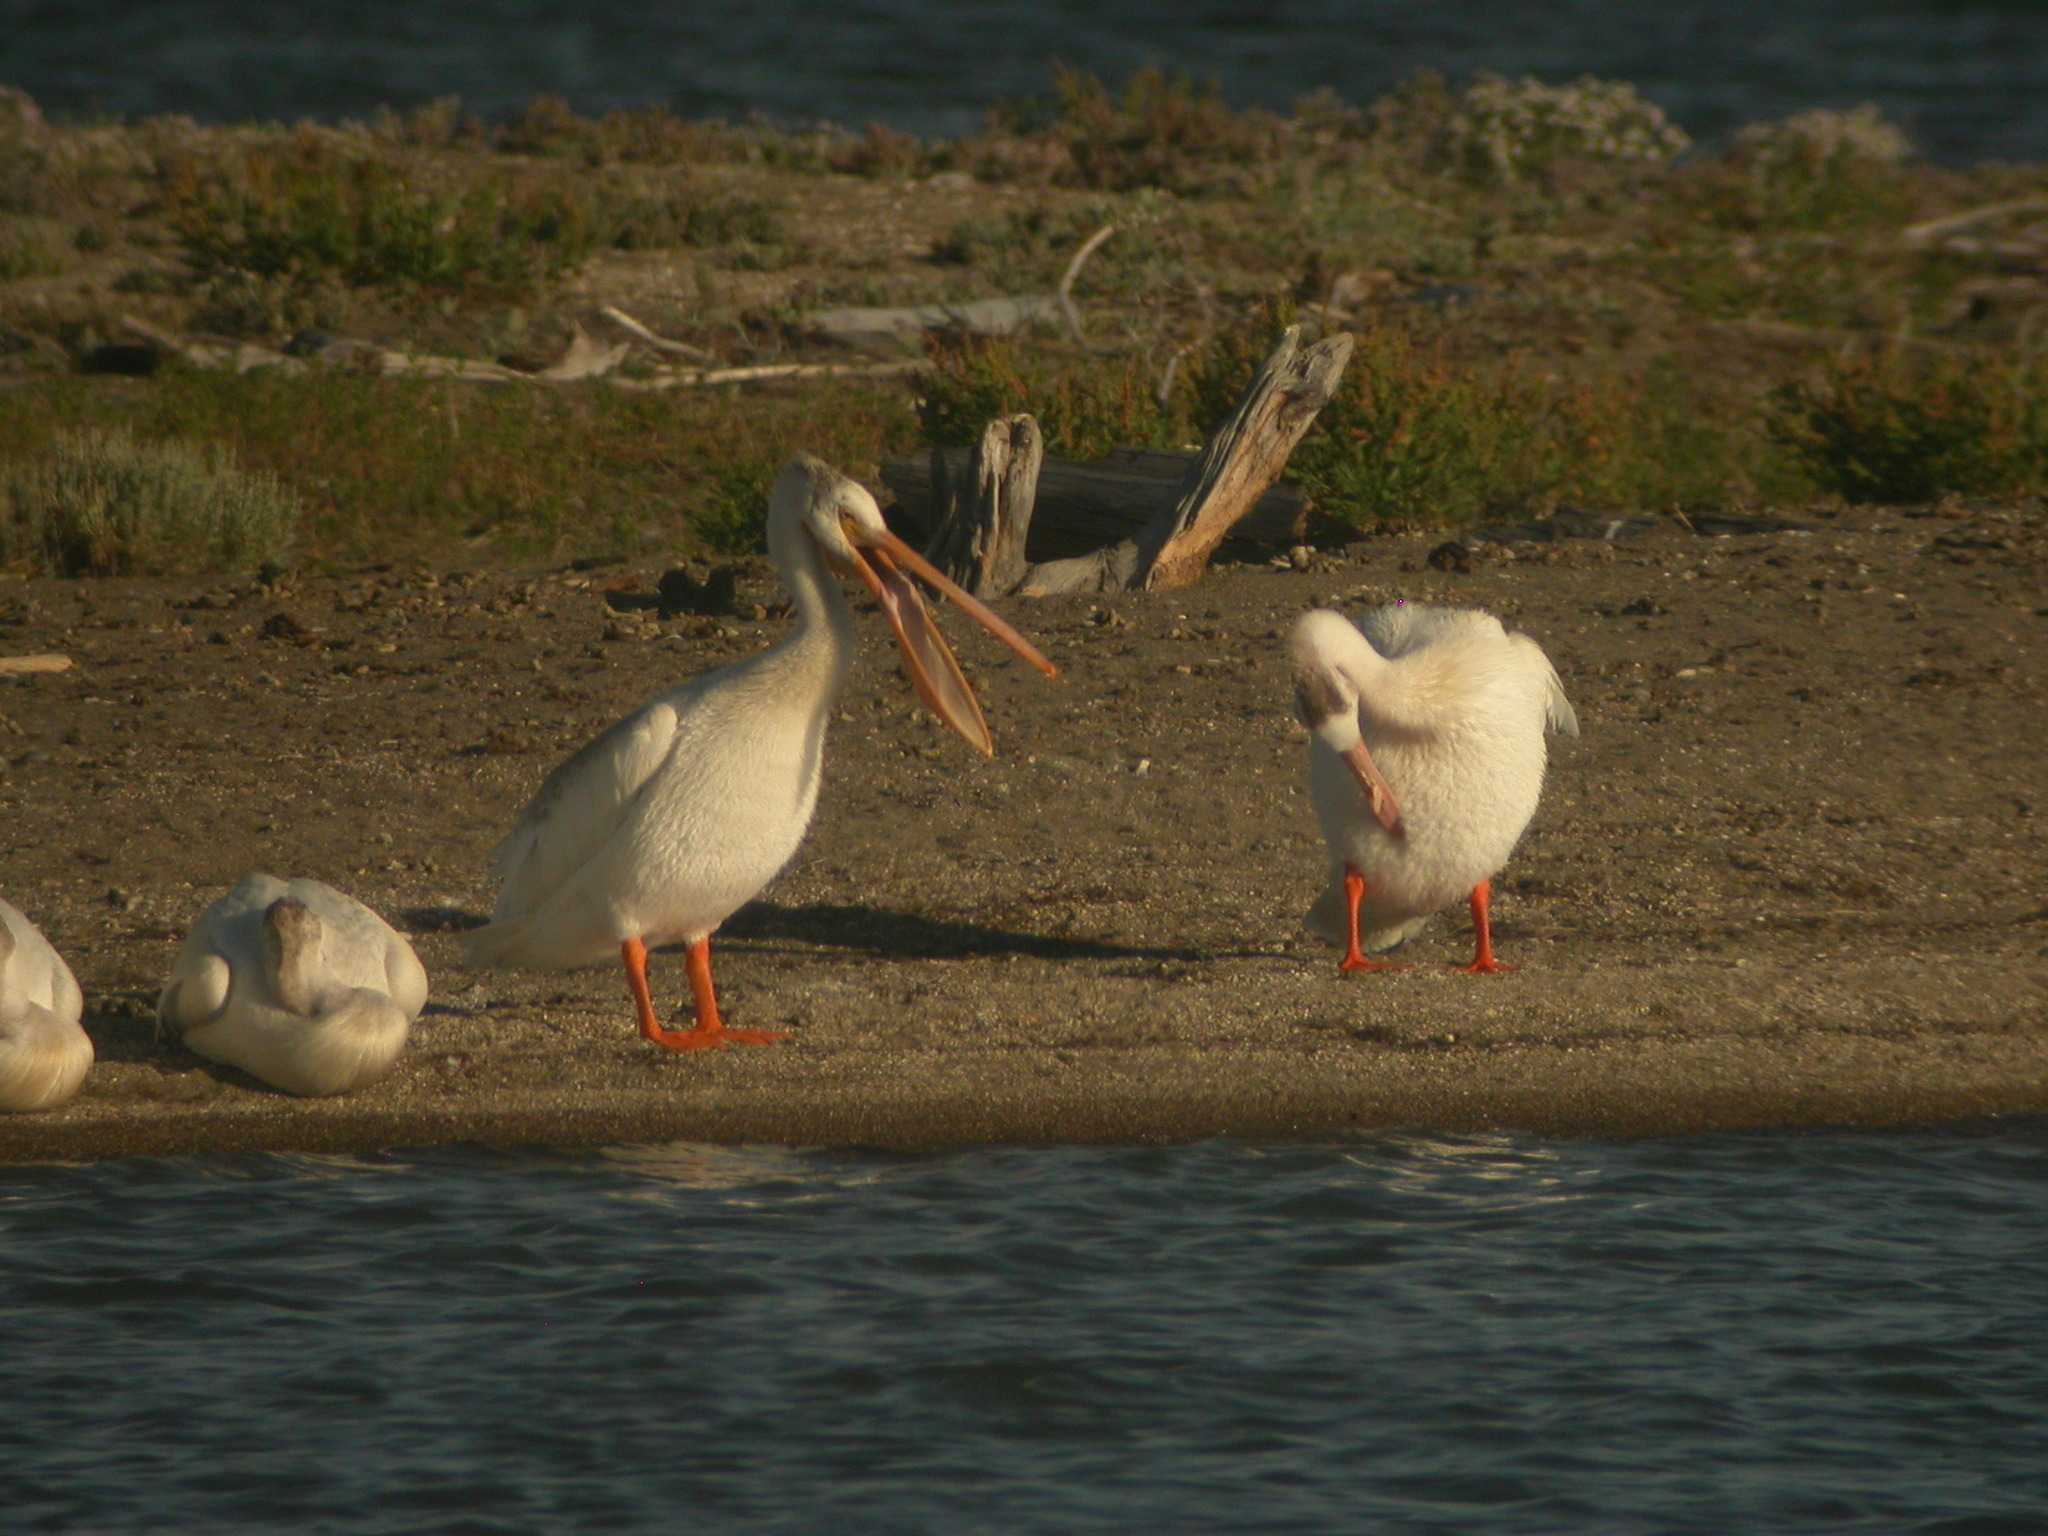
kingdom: Animalia
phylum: Chordata
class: Aves
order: Pelecaniformes
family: Pelecanidae
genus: Pelecanus
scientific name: Pelecanus erythrorhynchos
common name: American white pelican
